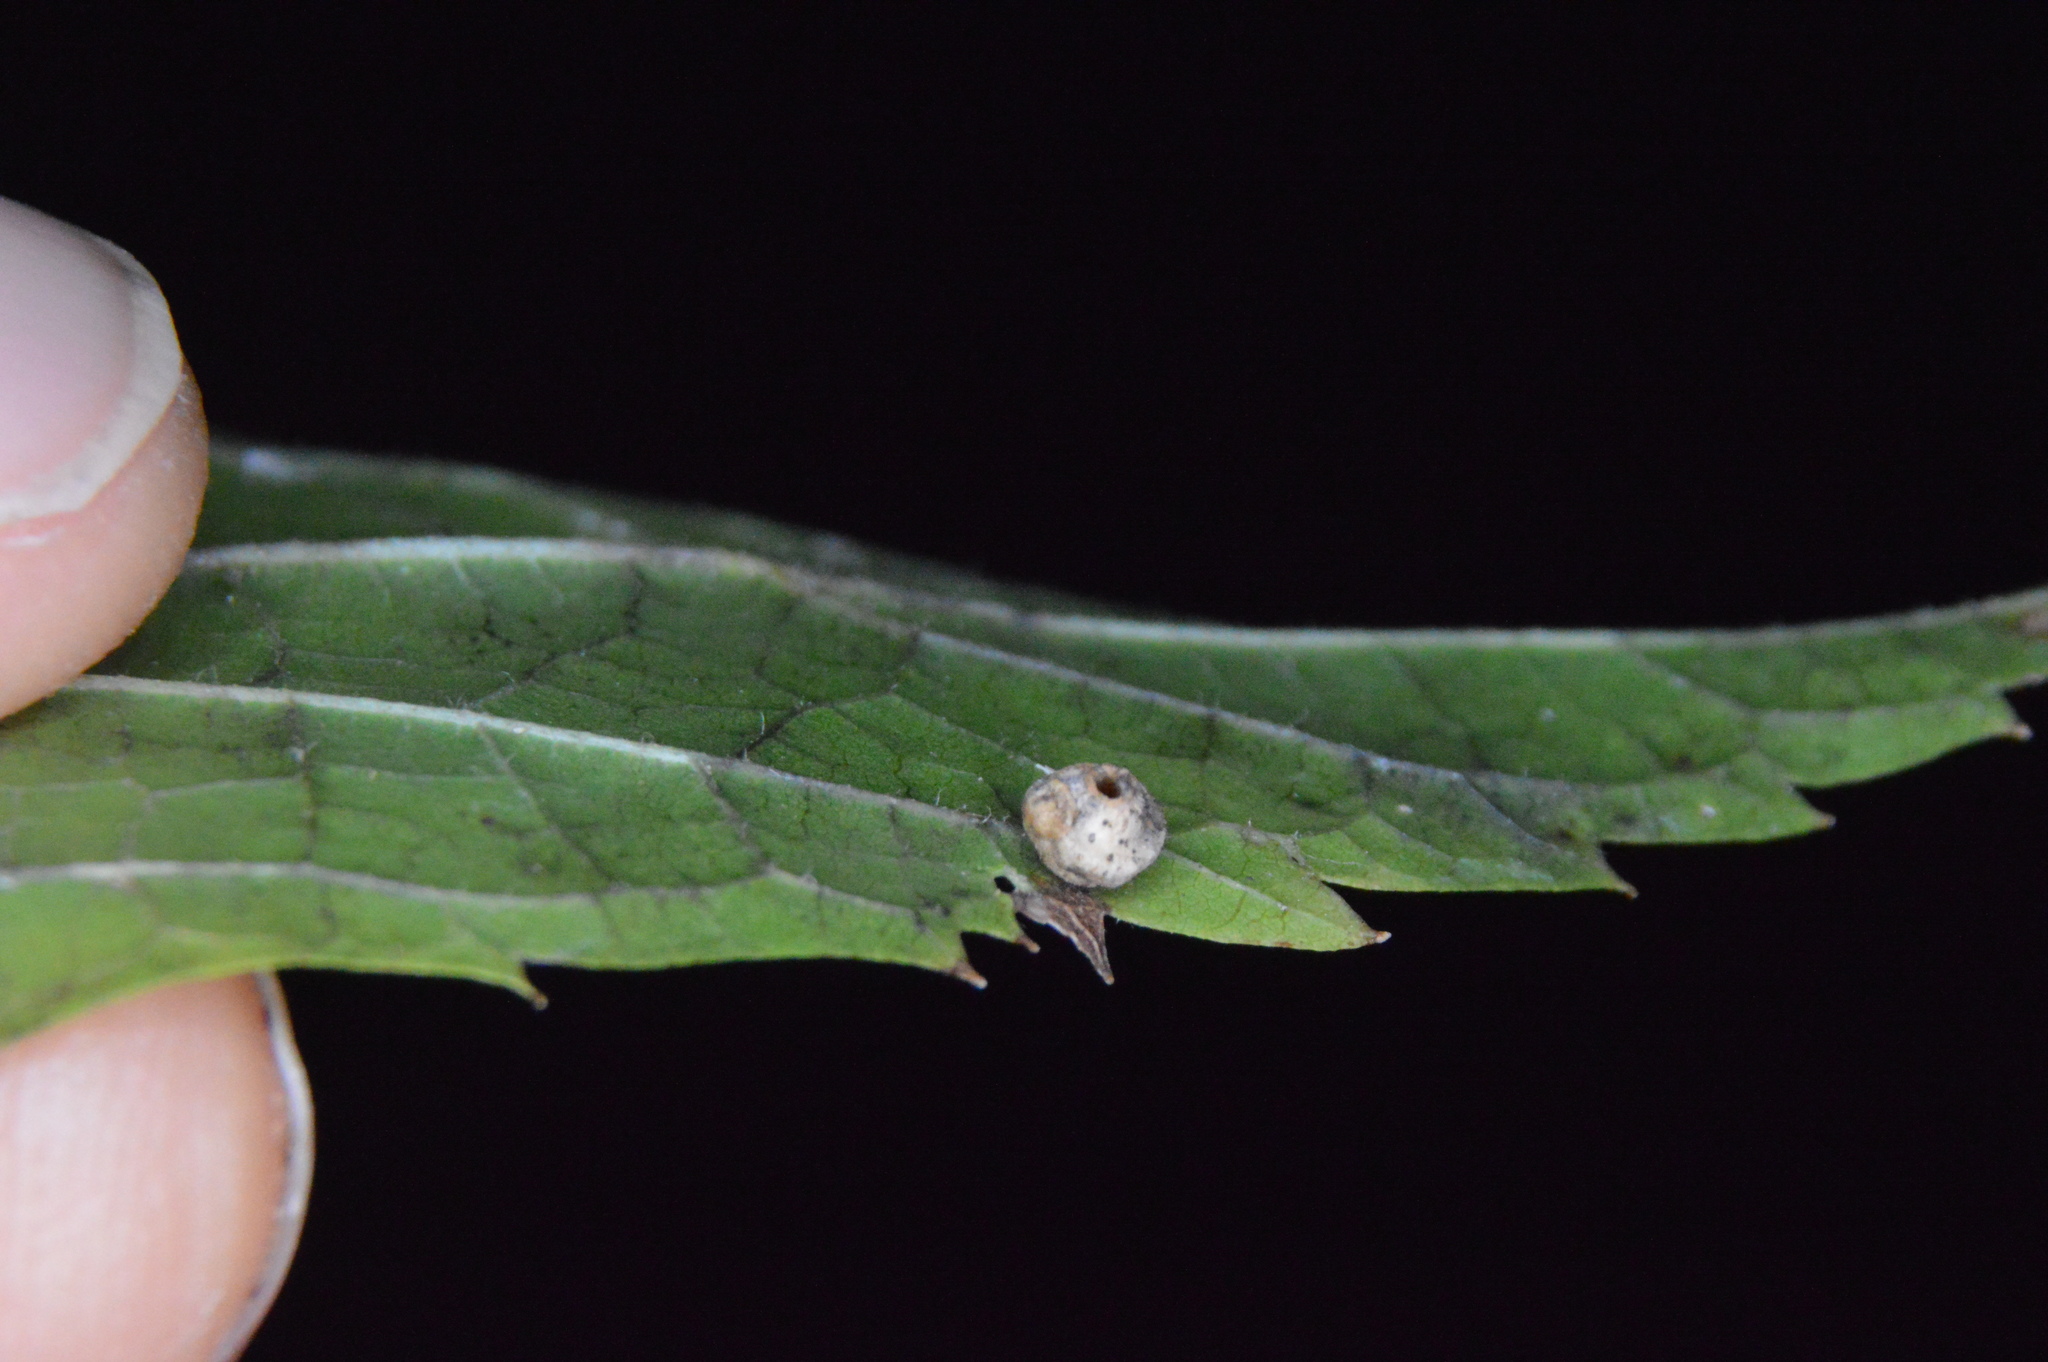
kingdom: Animalia
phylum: Arthropoda
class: Insecta
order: Diptera
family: Cecidomyiidae
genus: Celticecis
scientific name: Celticecis globosa
